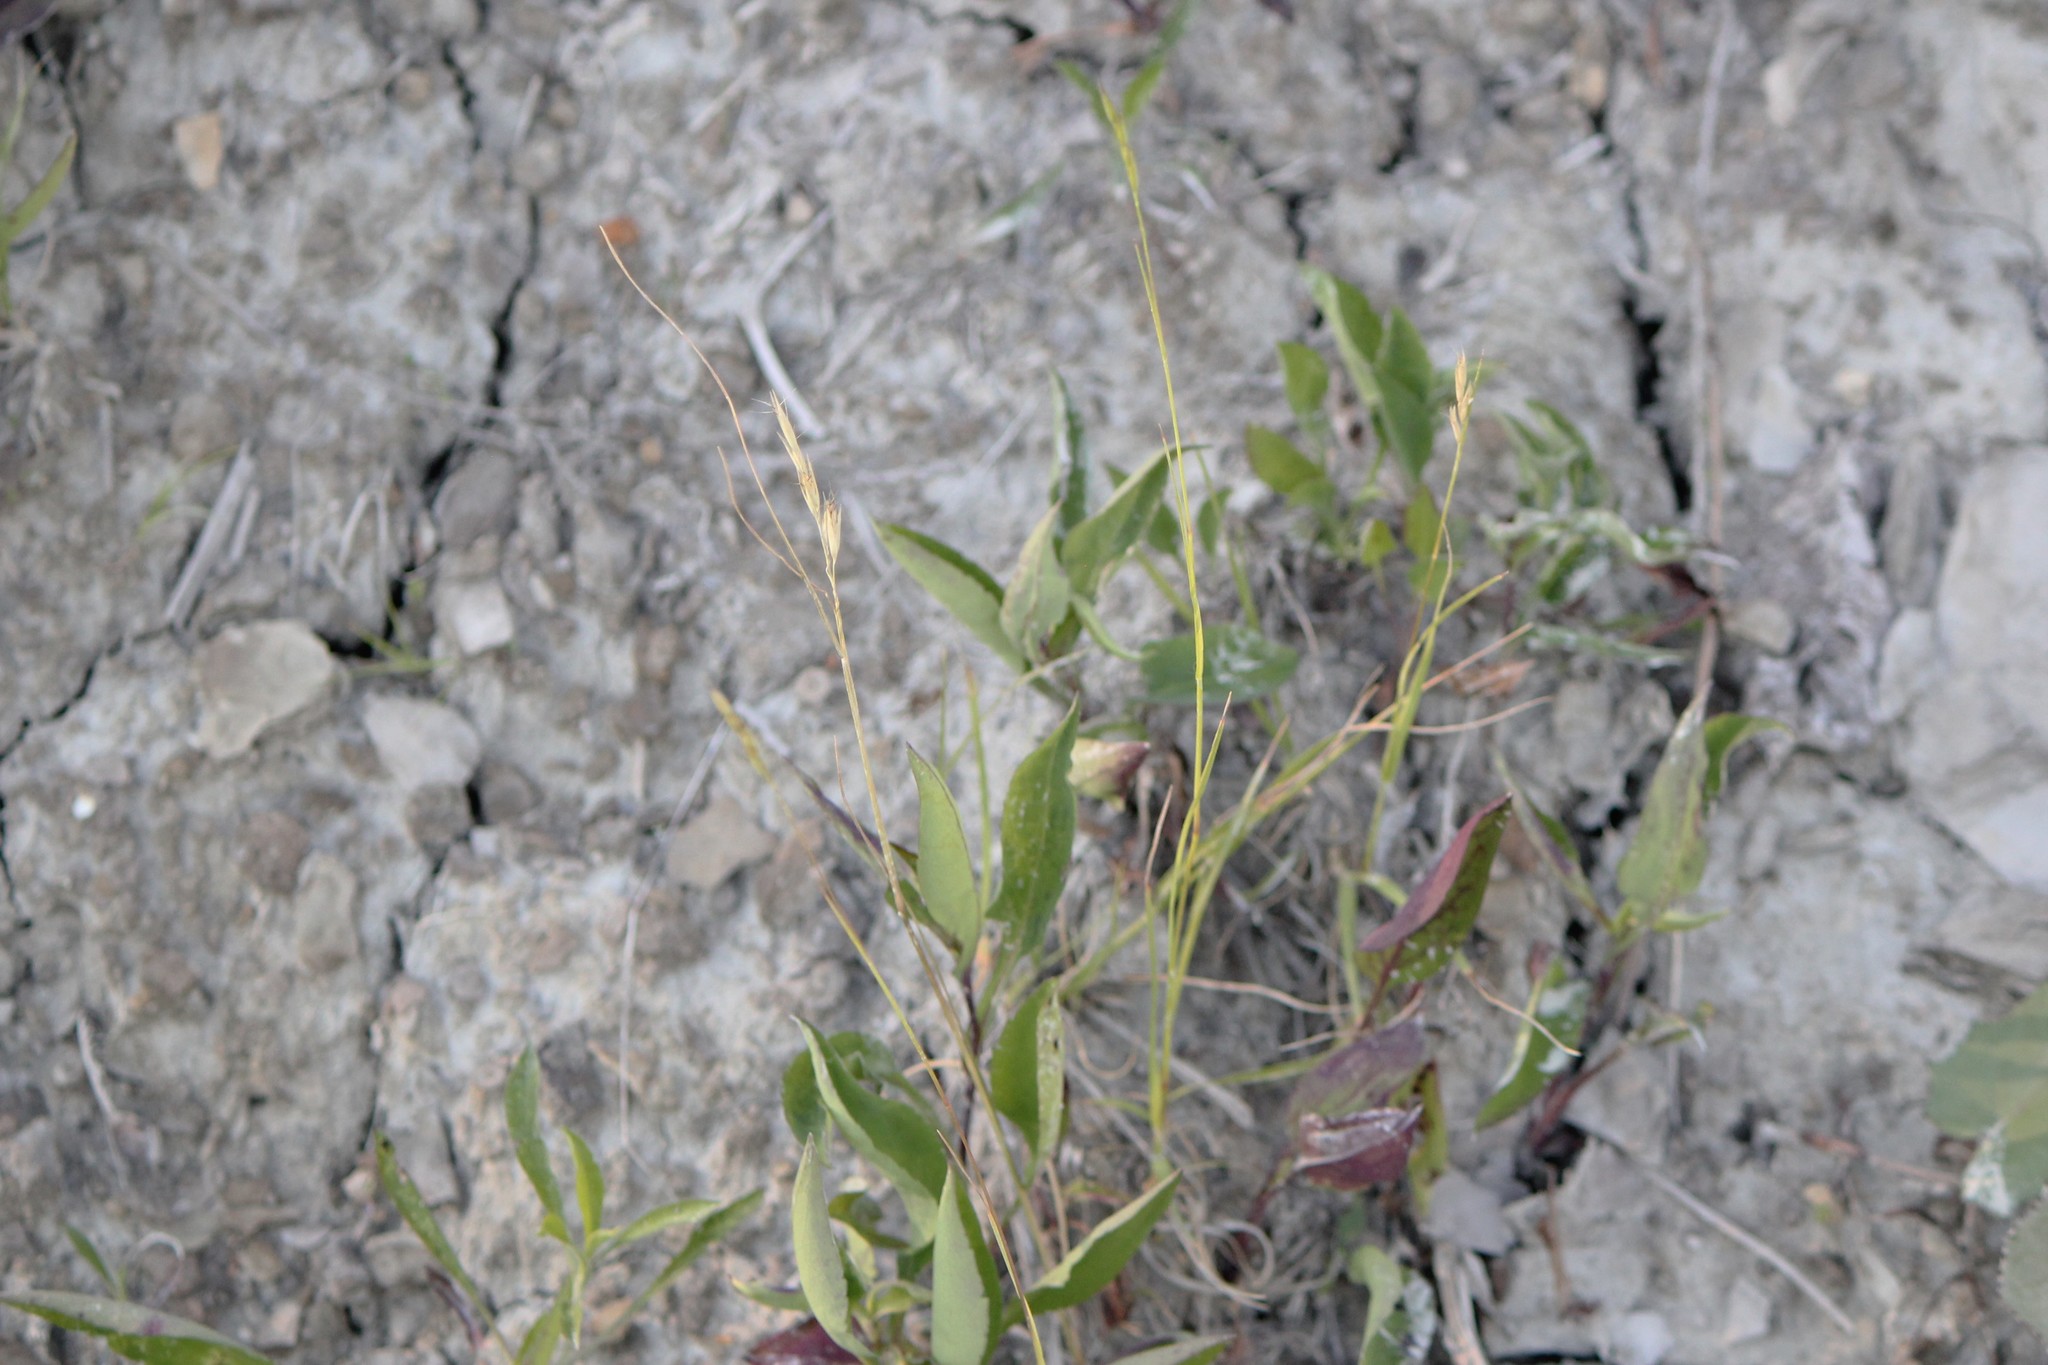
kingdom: Plantae
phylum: Tracheophyta
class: Liliopsida
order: Poales
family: Poaceae
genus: Danthonia
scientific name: Danthonia spicata
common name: Common wild oatgrass
